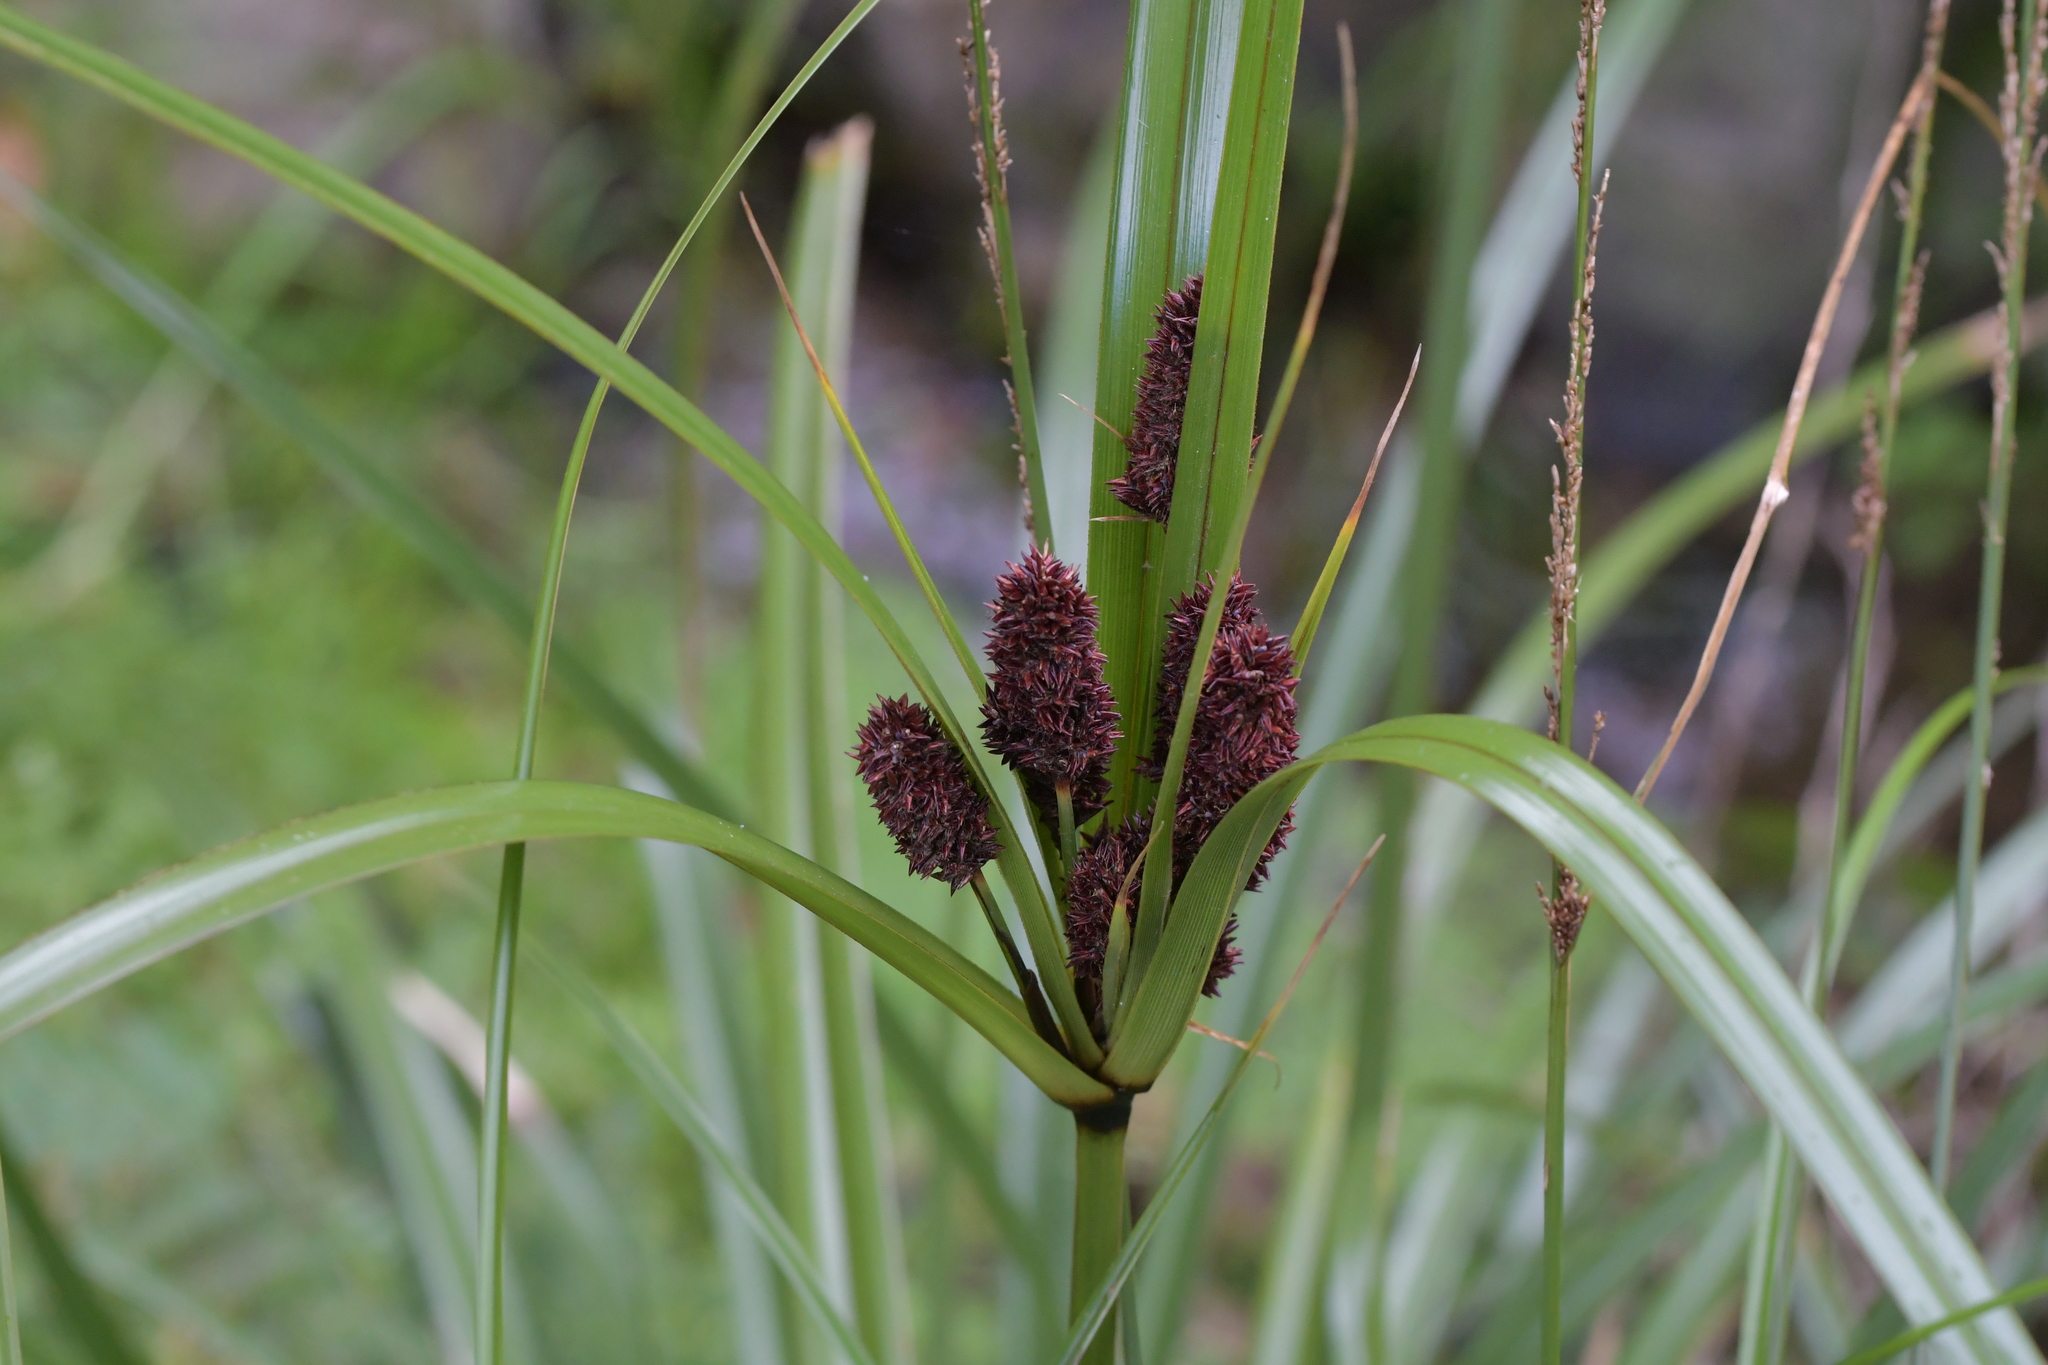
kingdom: Plantae
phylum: Tracheophyta
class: Liliopsida
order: Poales
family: Cyperaceae
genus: Cyperus
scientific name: Cyperus ustulatus
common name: Giant umbrella-sedge
